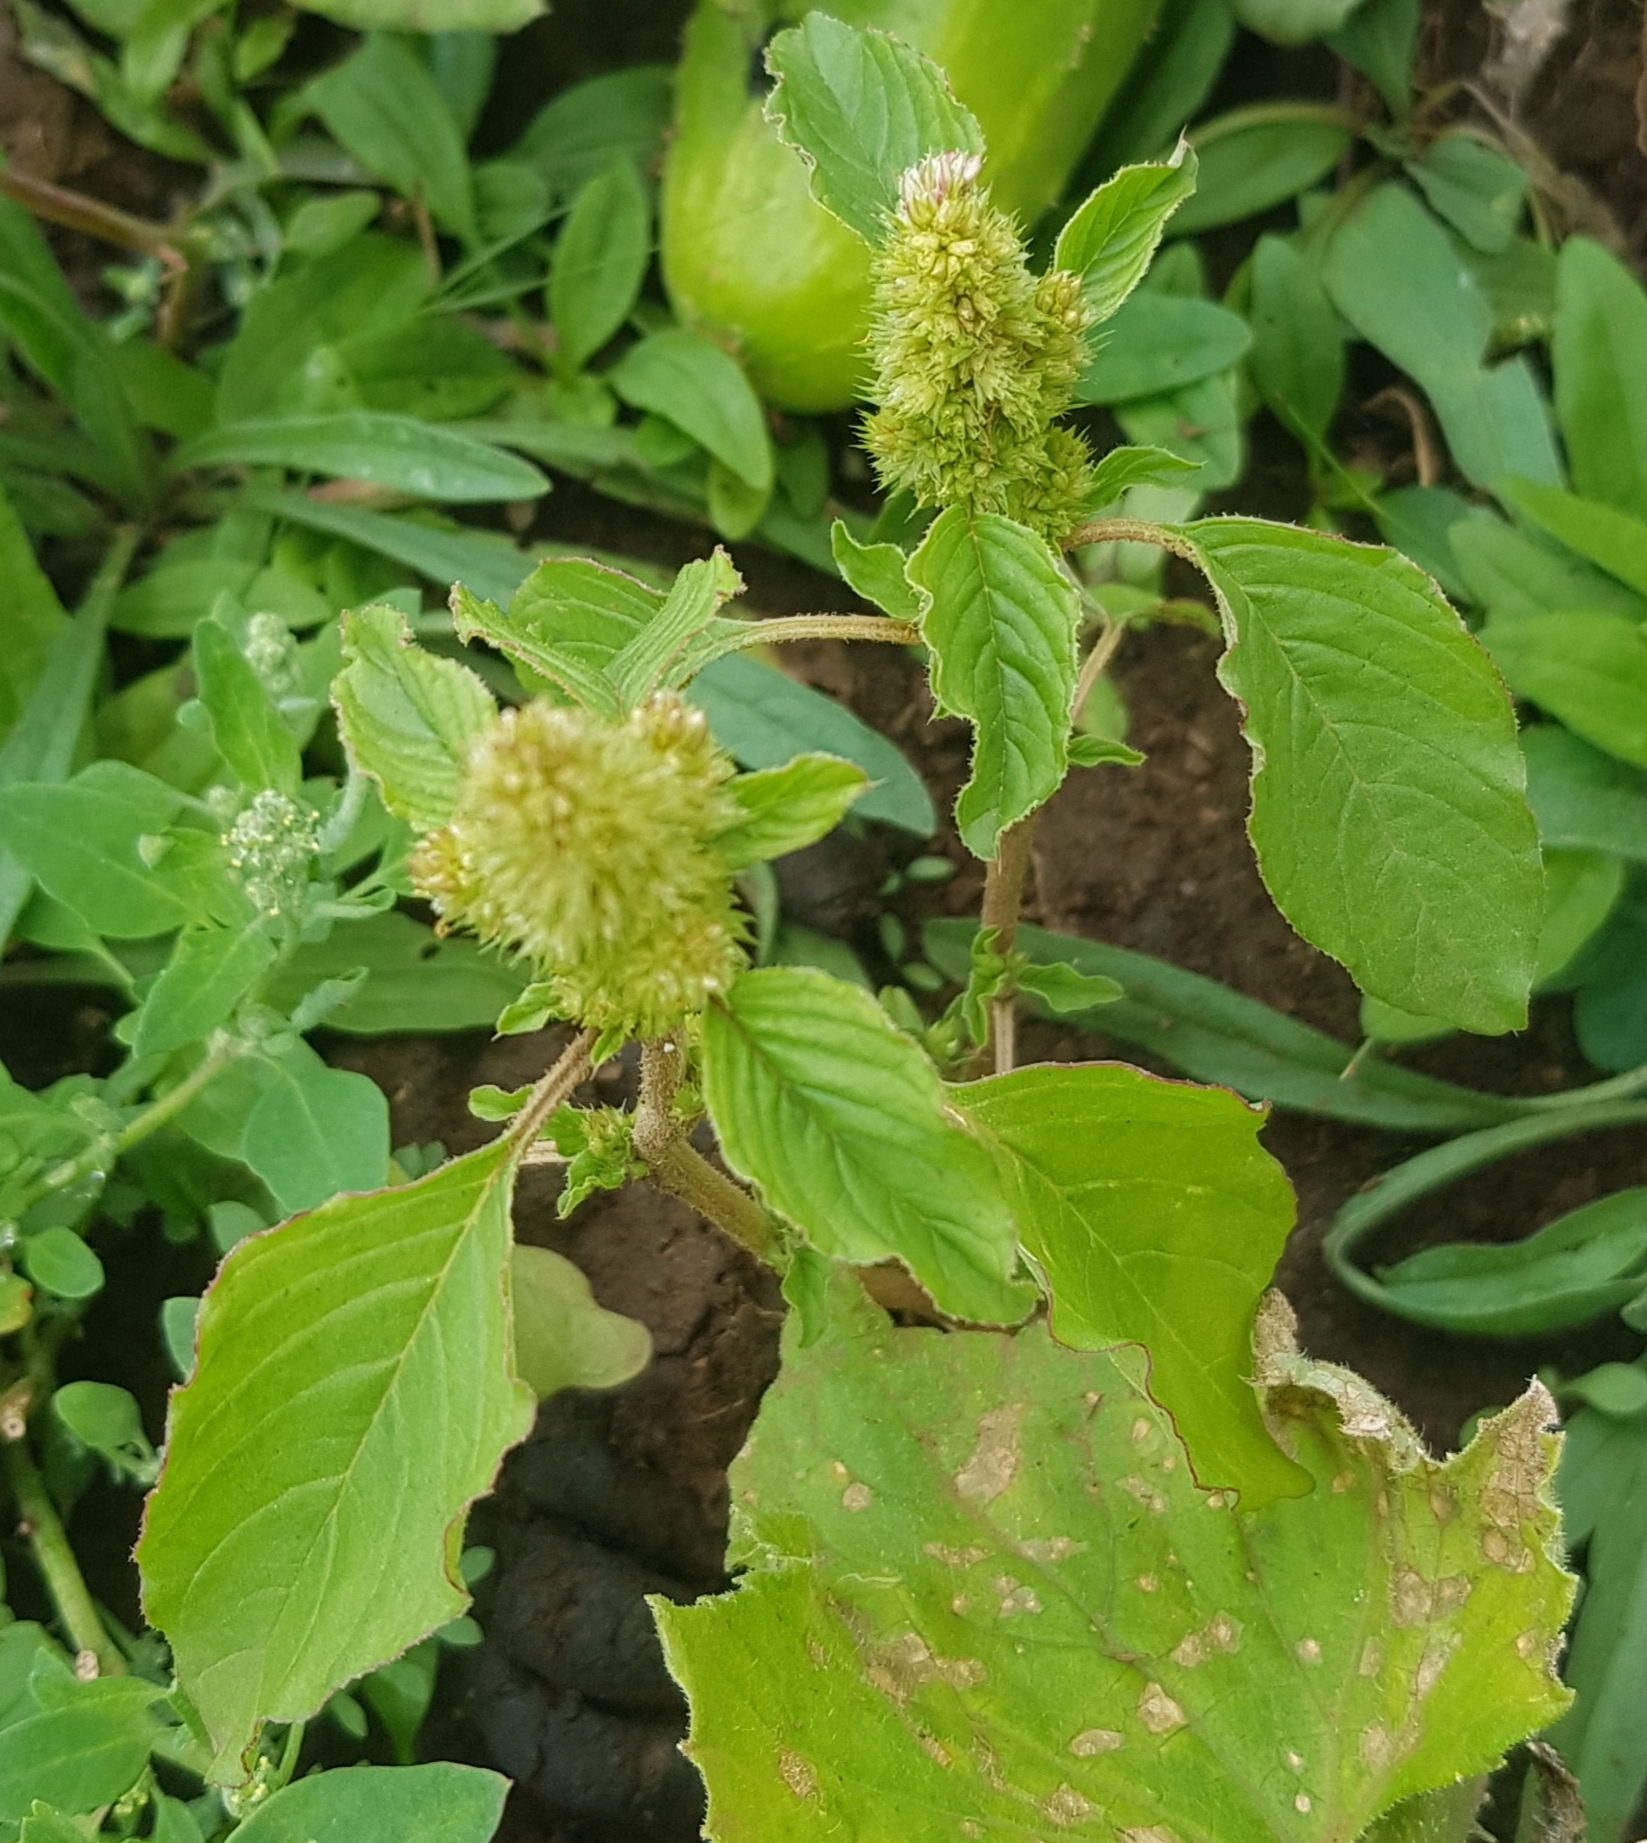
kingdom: Plantae
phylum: Tracheophyta
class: Magnoliopsida
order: Caryophyllales
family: Amaranthaceae
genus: Amaranthus
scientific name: Amaranthus retroflexus
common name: Redroot amaranth
